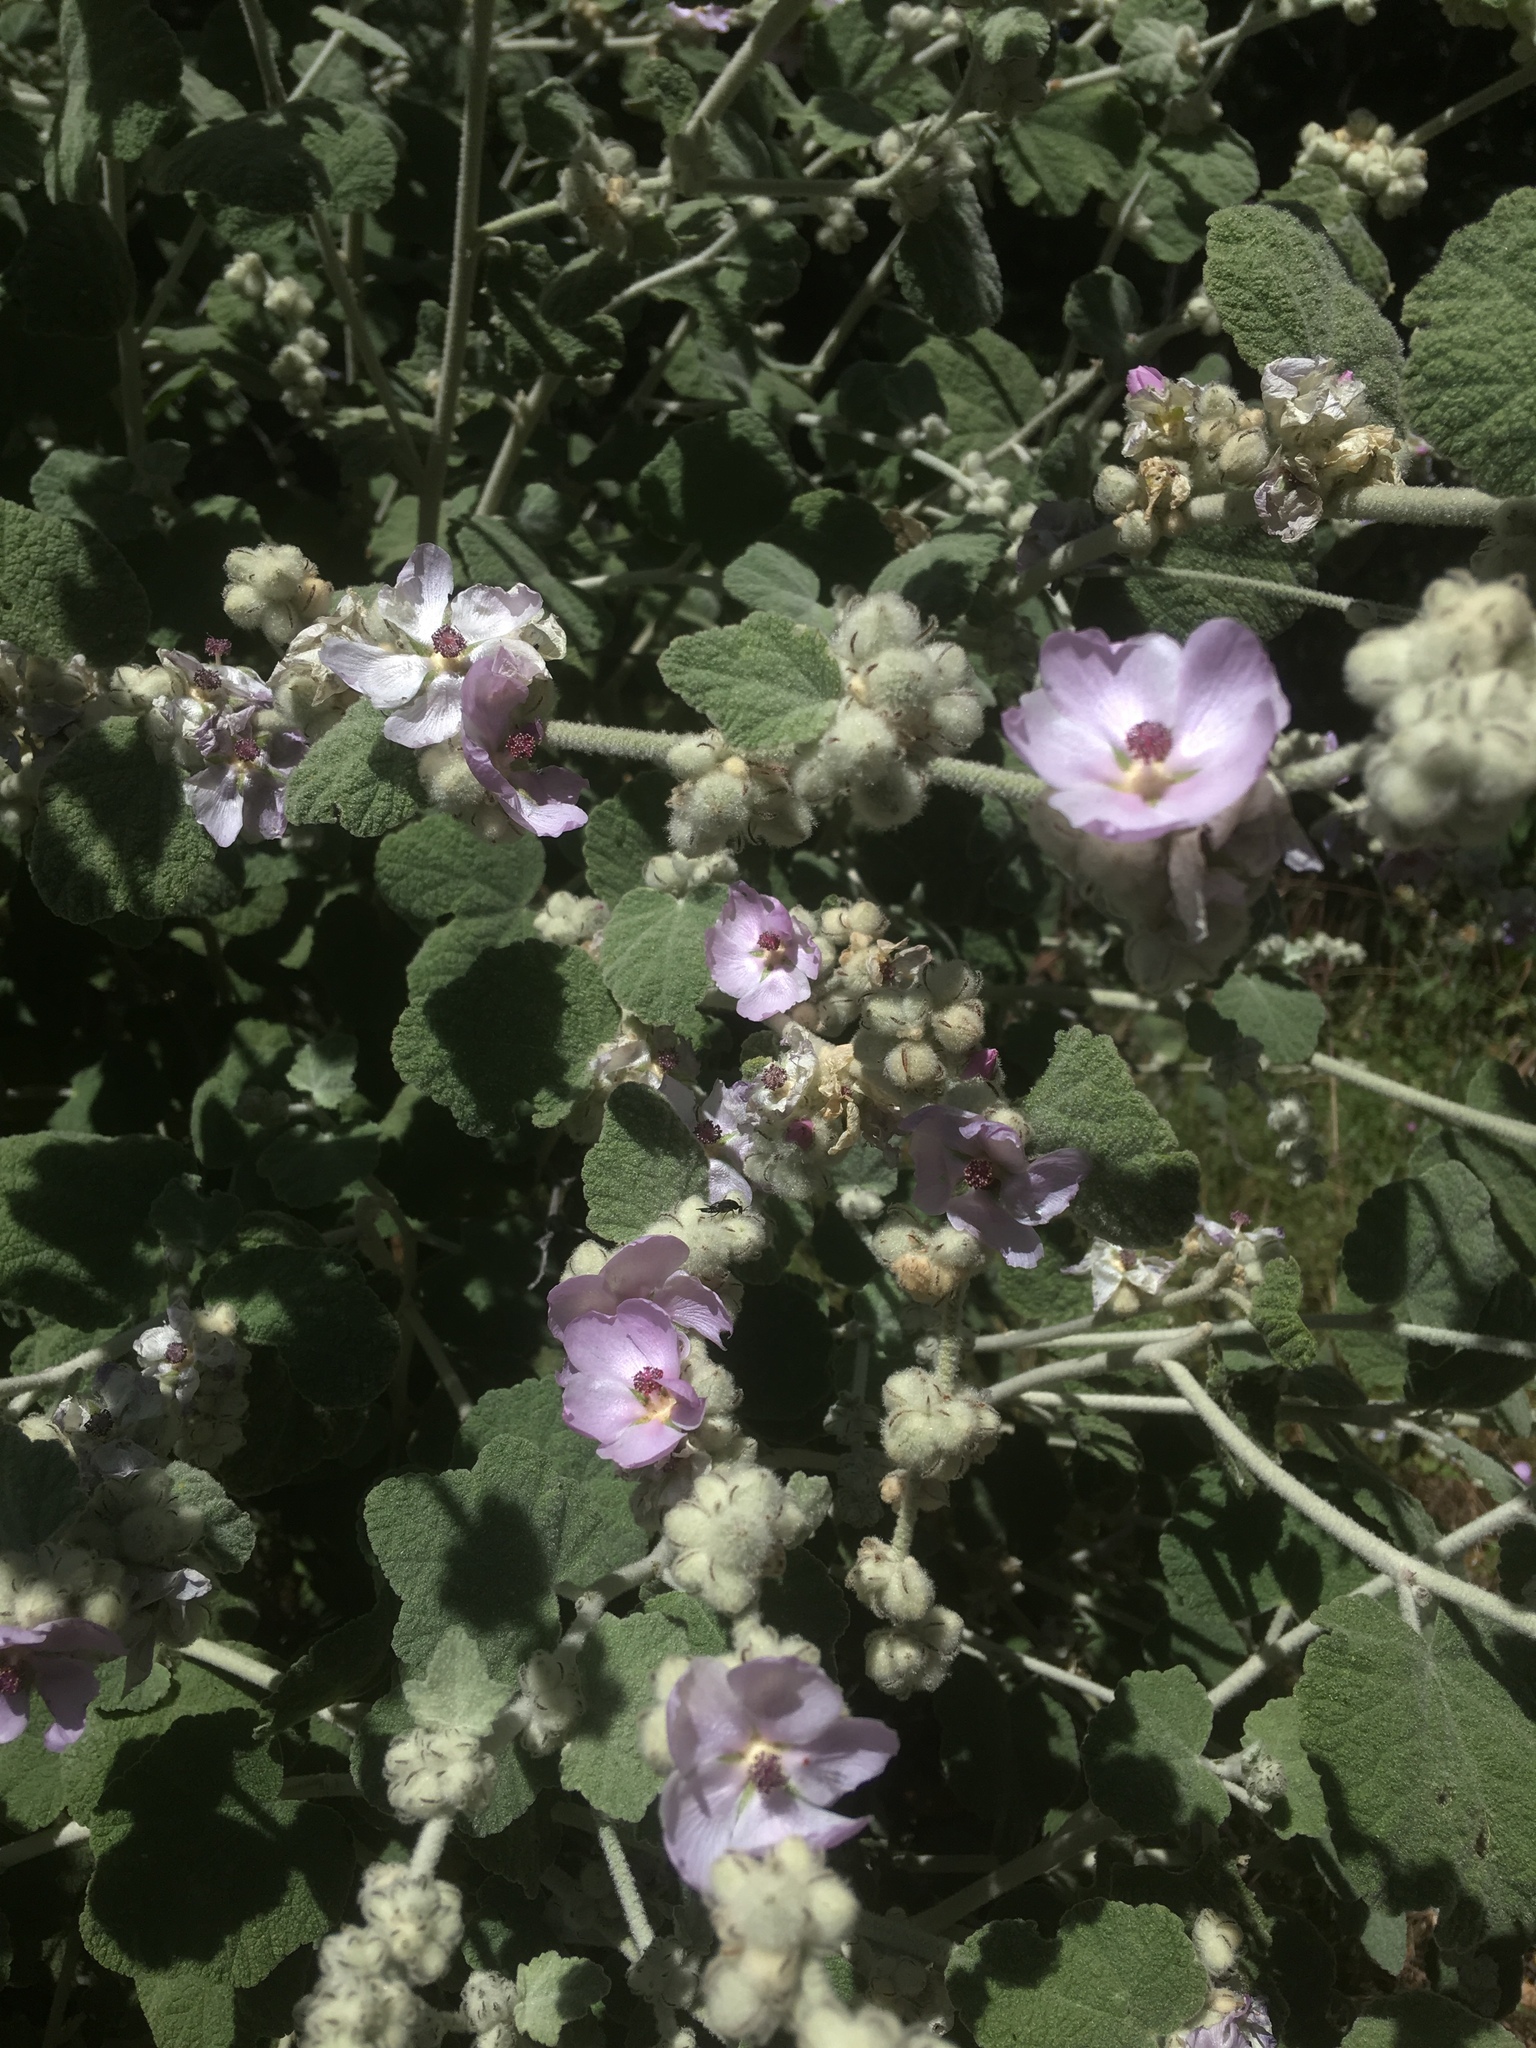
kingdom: Plantae
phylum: Tracheophyta
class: Magnoliopsida
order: Malvales
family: Malvaceae
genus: Malacothamnus
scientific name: Malacothamnus fremontii
